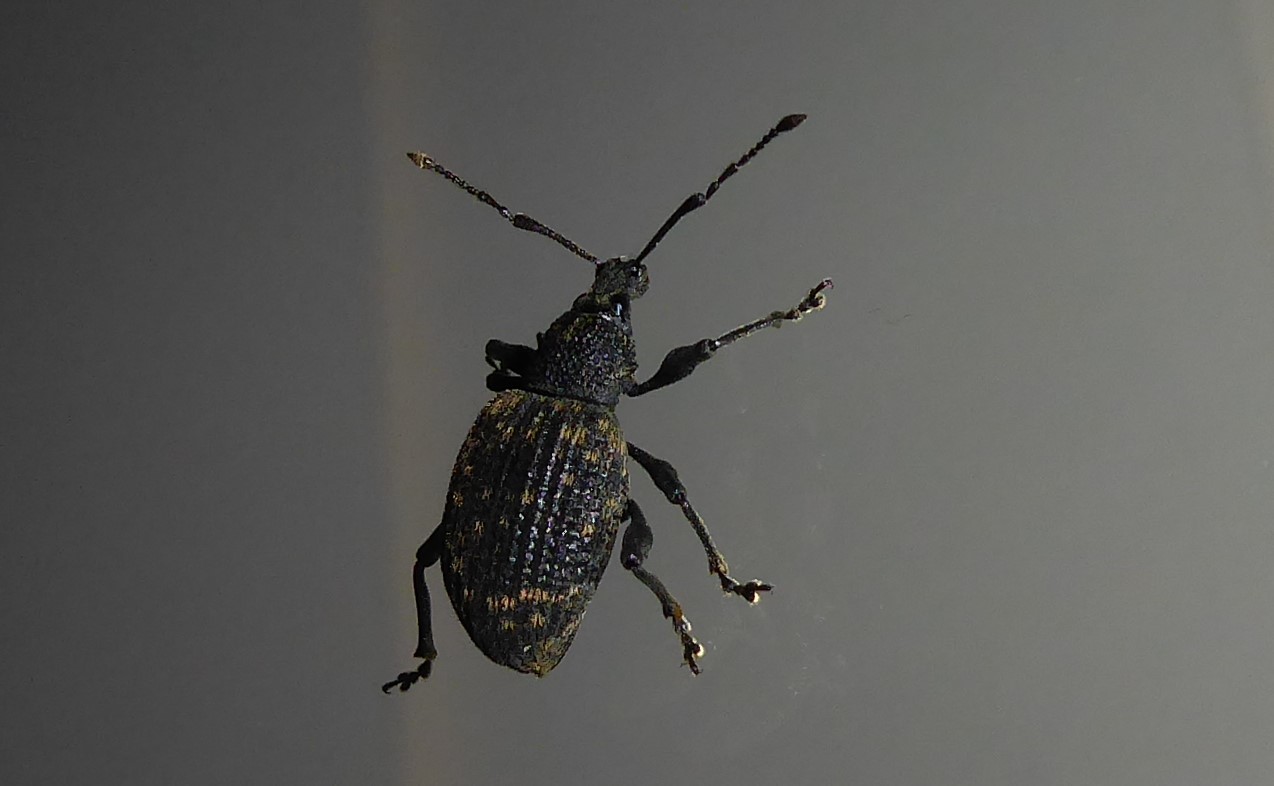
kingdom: Animalia
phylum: Arthropoda
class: Insecta
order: Coleoptera
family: Curculionidae
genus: Otiorhynchus
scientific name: Otiorhynchus sulcatus
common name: Black vine weevil
